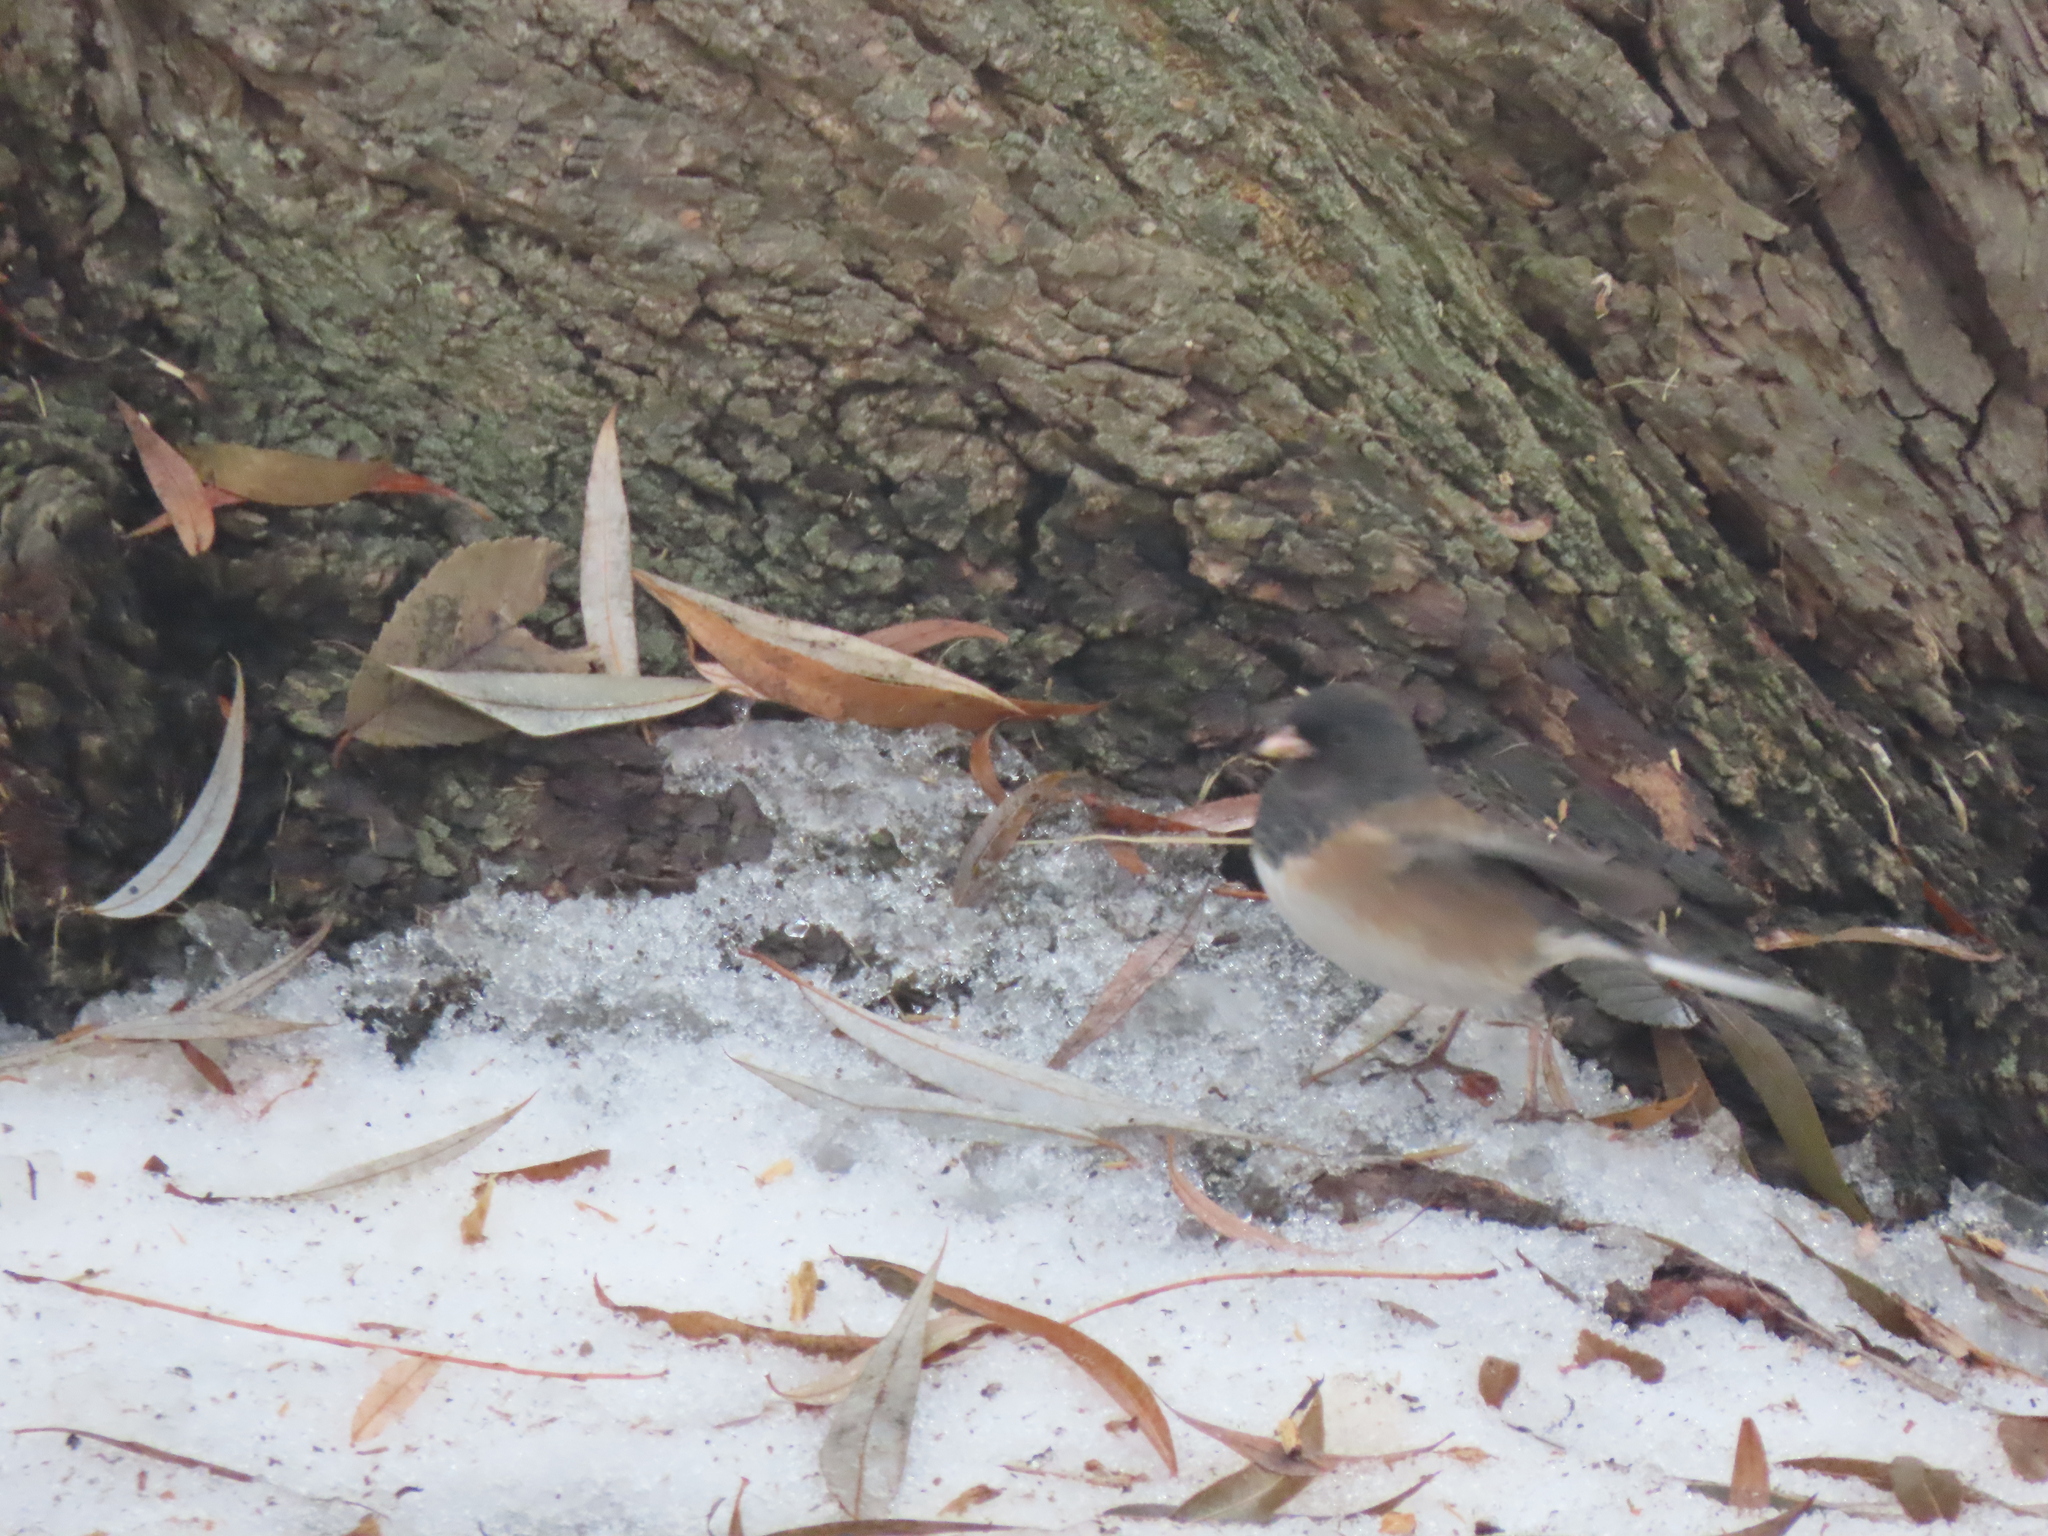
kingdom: Animalia
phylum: Chordata
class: Aves
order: Passeriformes
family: Passerellidae
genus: Junco
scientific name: Junco hyemalis
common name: Dark-eyed junco
